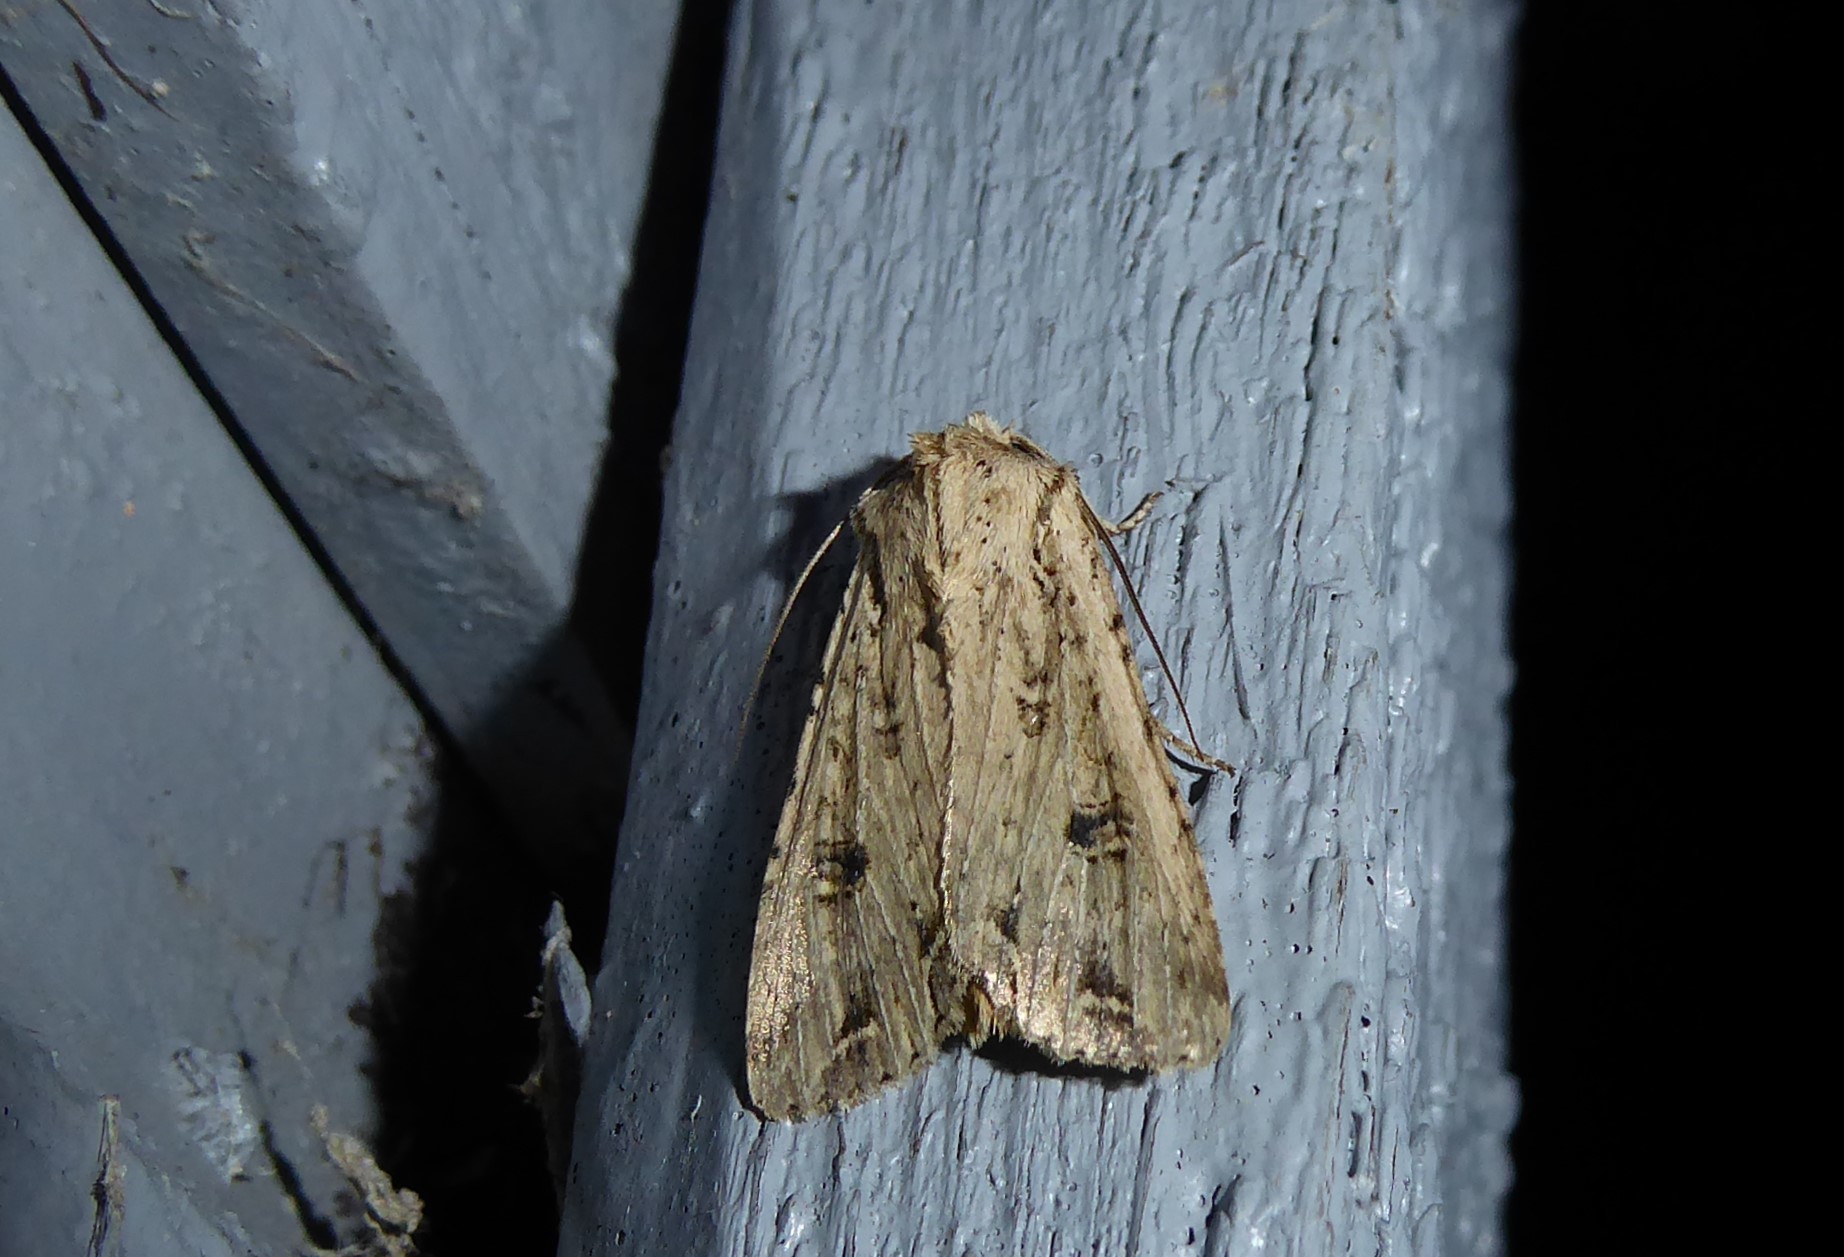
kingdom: Animalia
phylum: Arthropoda
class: Insecta
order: Lepidoptera
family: Noctuidae
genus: Ichneutica
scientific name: Ichneutica lignana
